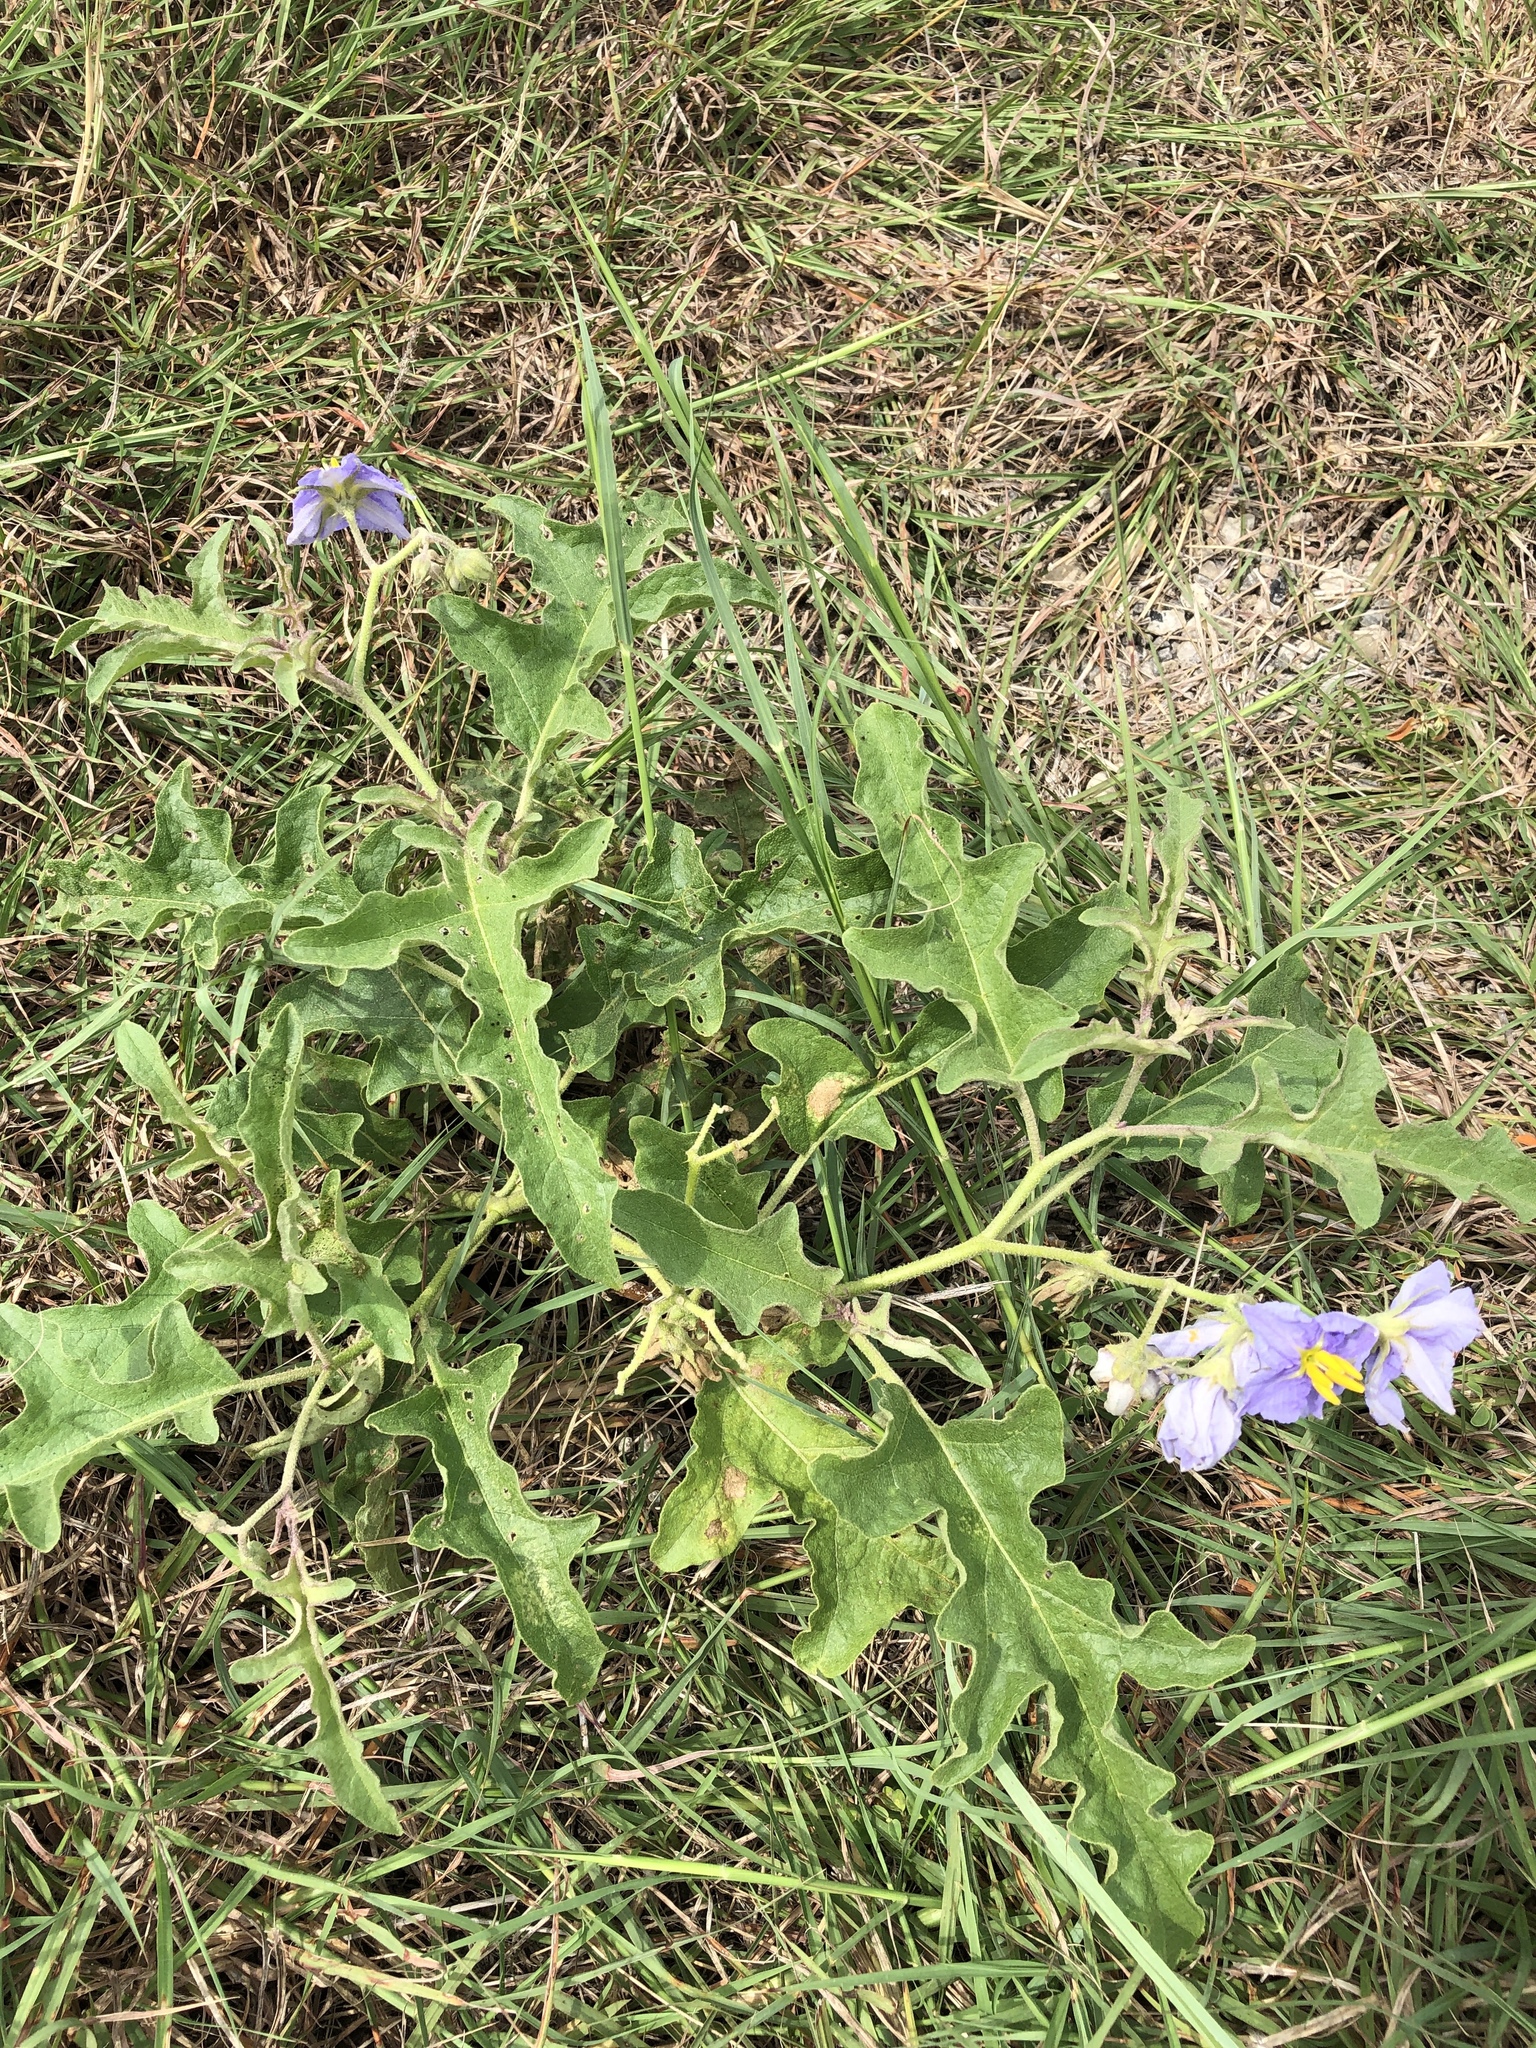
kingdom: Plantae
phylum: Tracheophyta
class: Magnoliopsida
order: Solanales
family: Solanaceae
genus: Solanum
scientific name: Solanum dimidiatum
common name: Carolina horse-nettle
